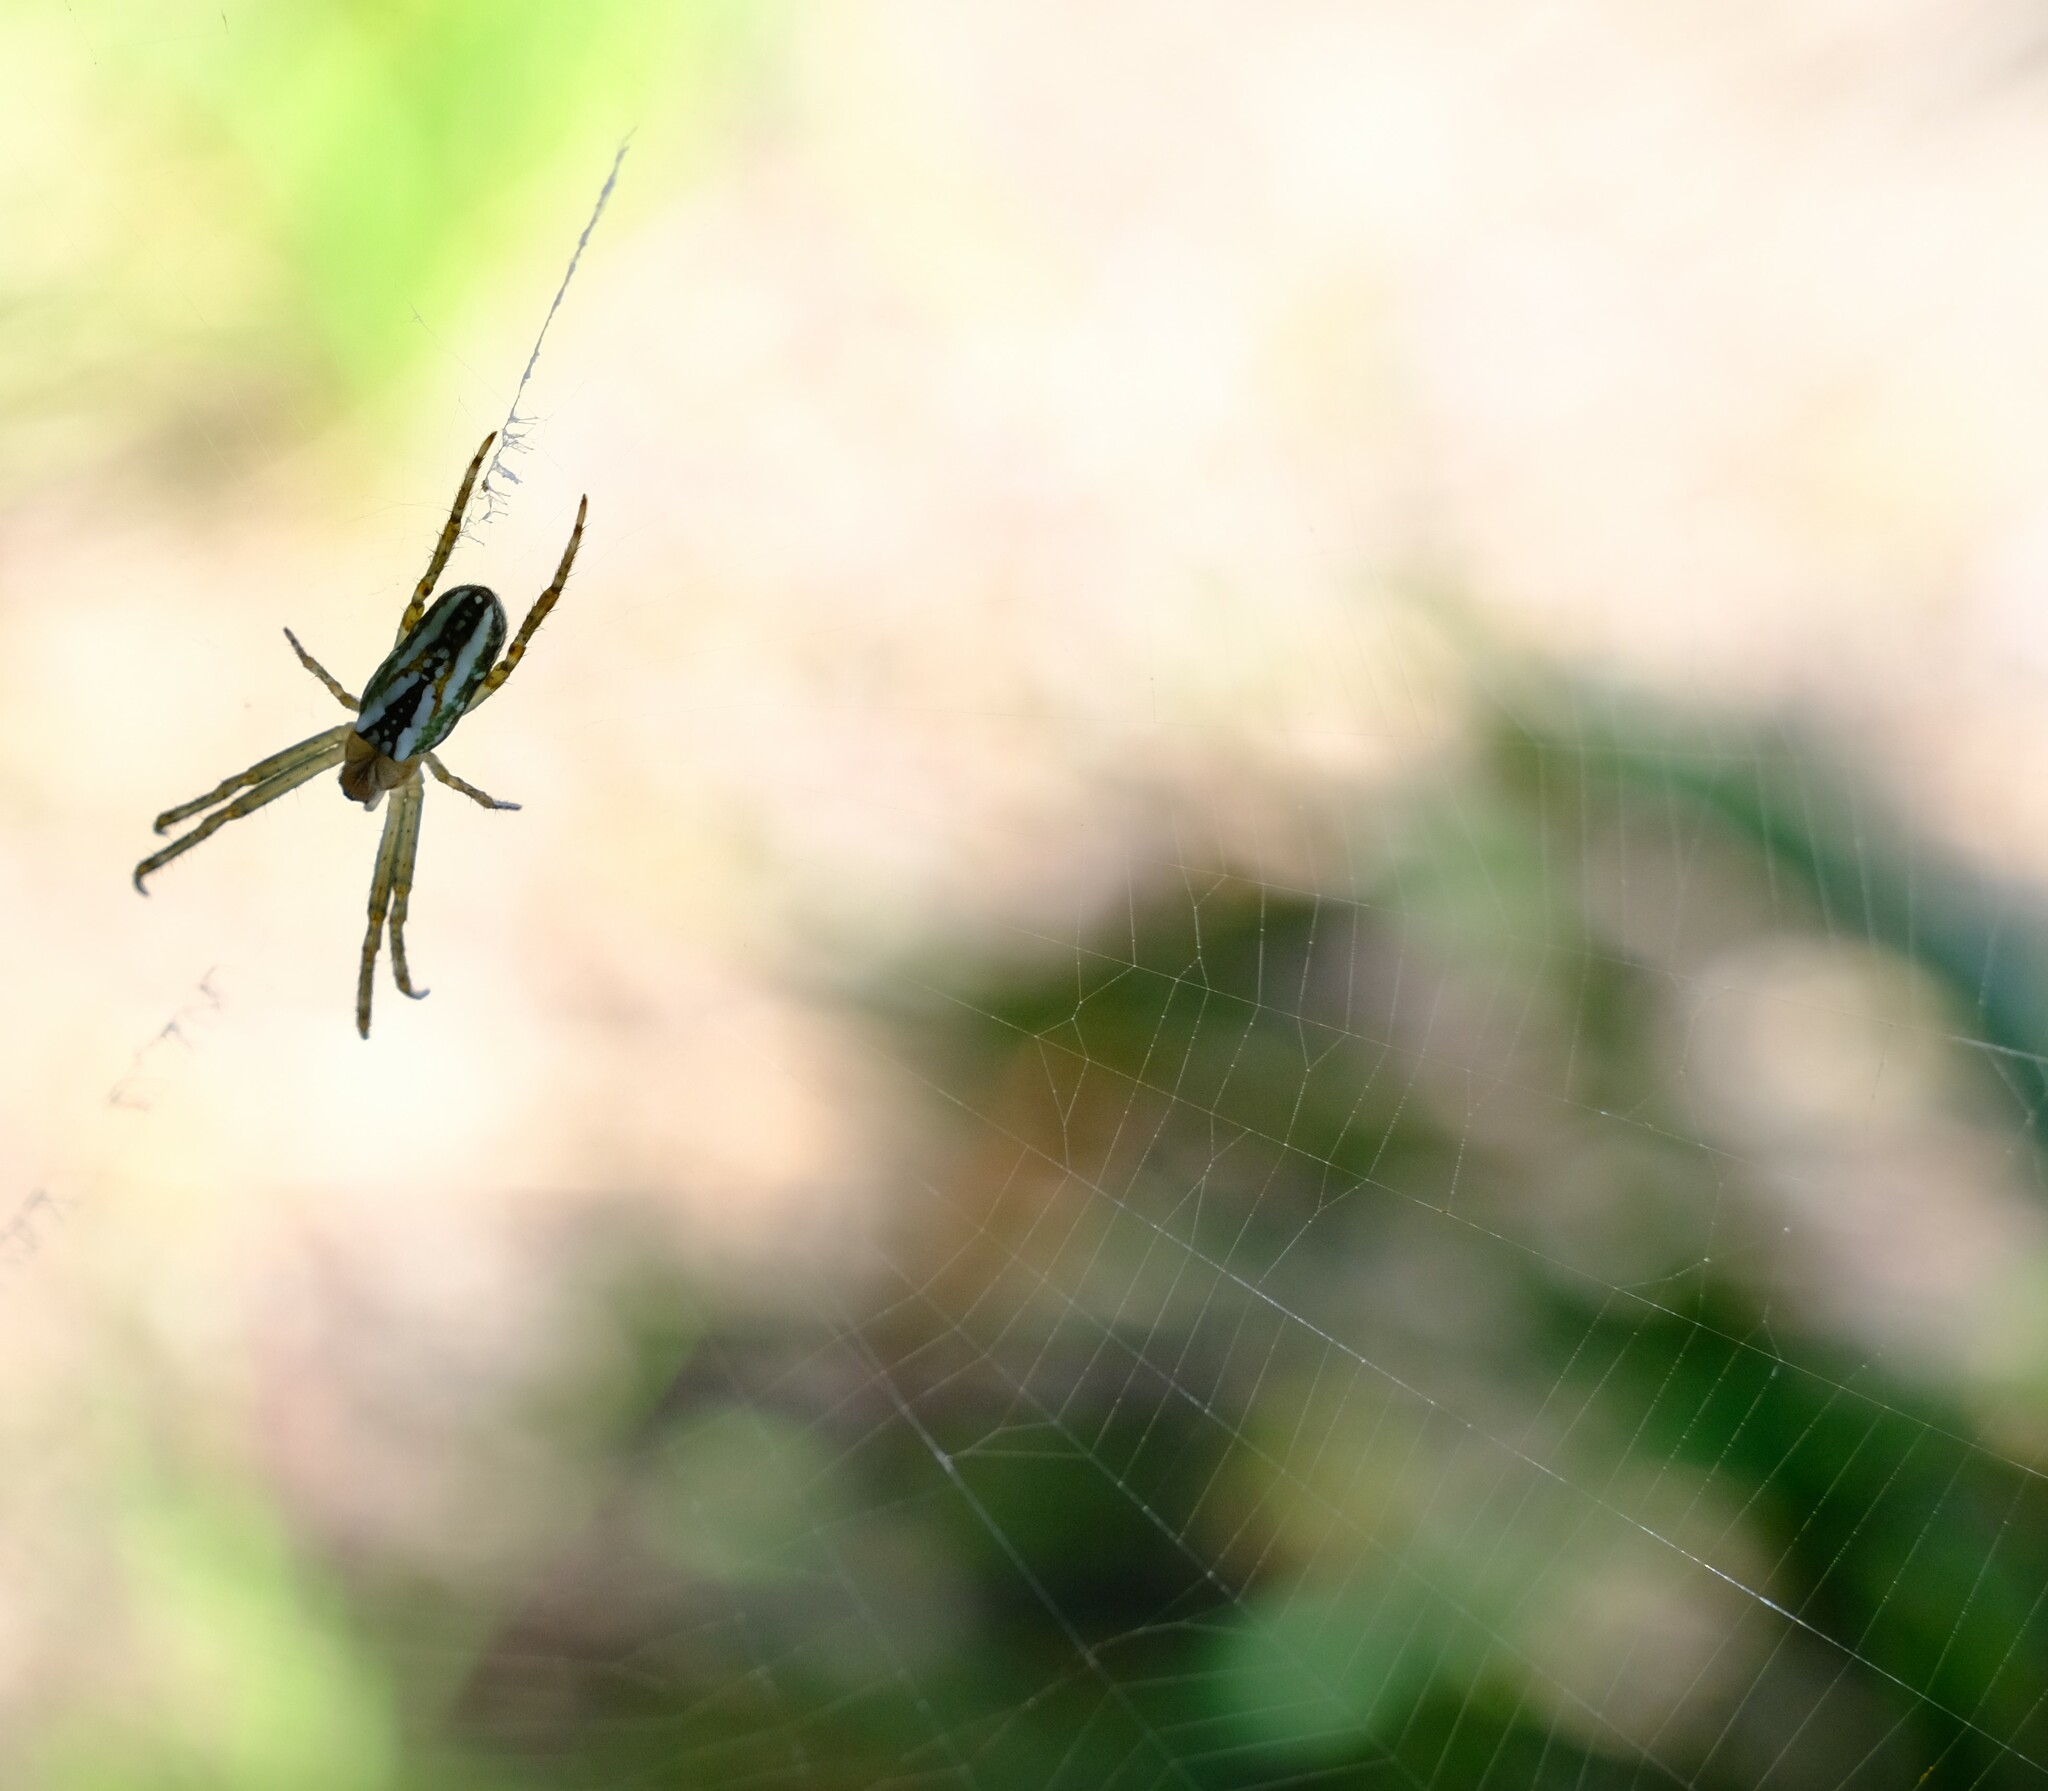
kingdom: Animalia
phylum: Arthropoda
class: Arachnida
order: Araneae
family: Araneidae
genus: Plebs
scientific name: Plebs bradleyi
